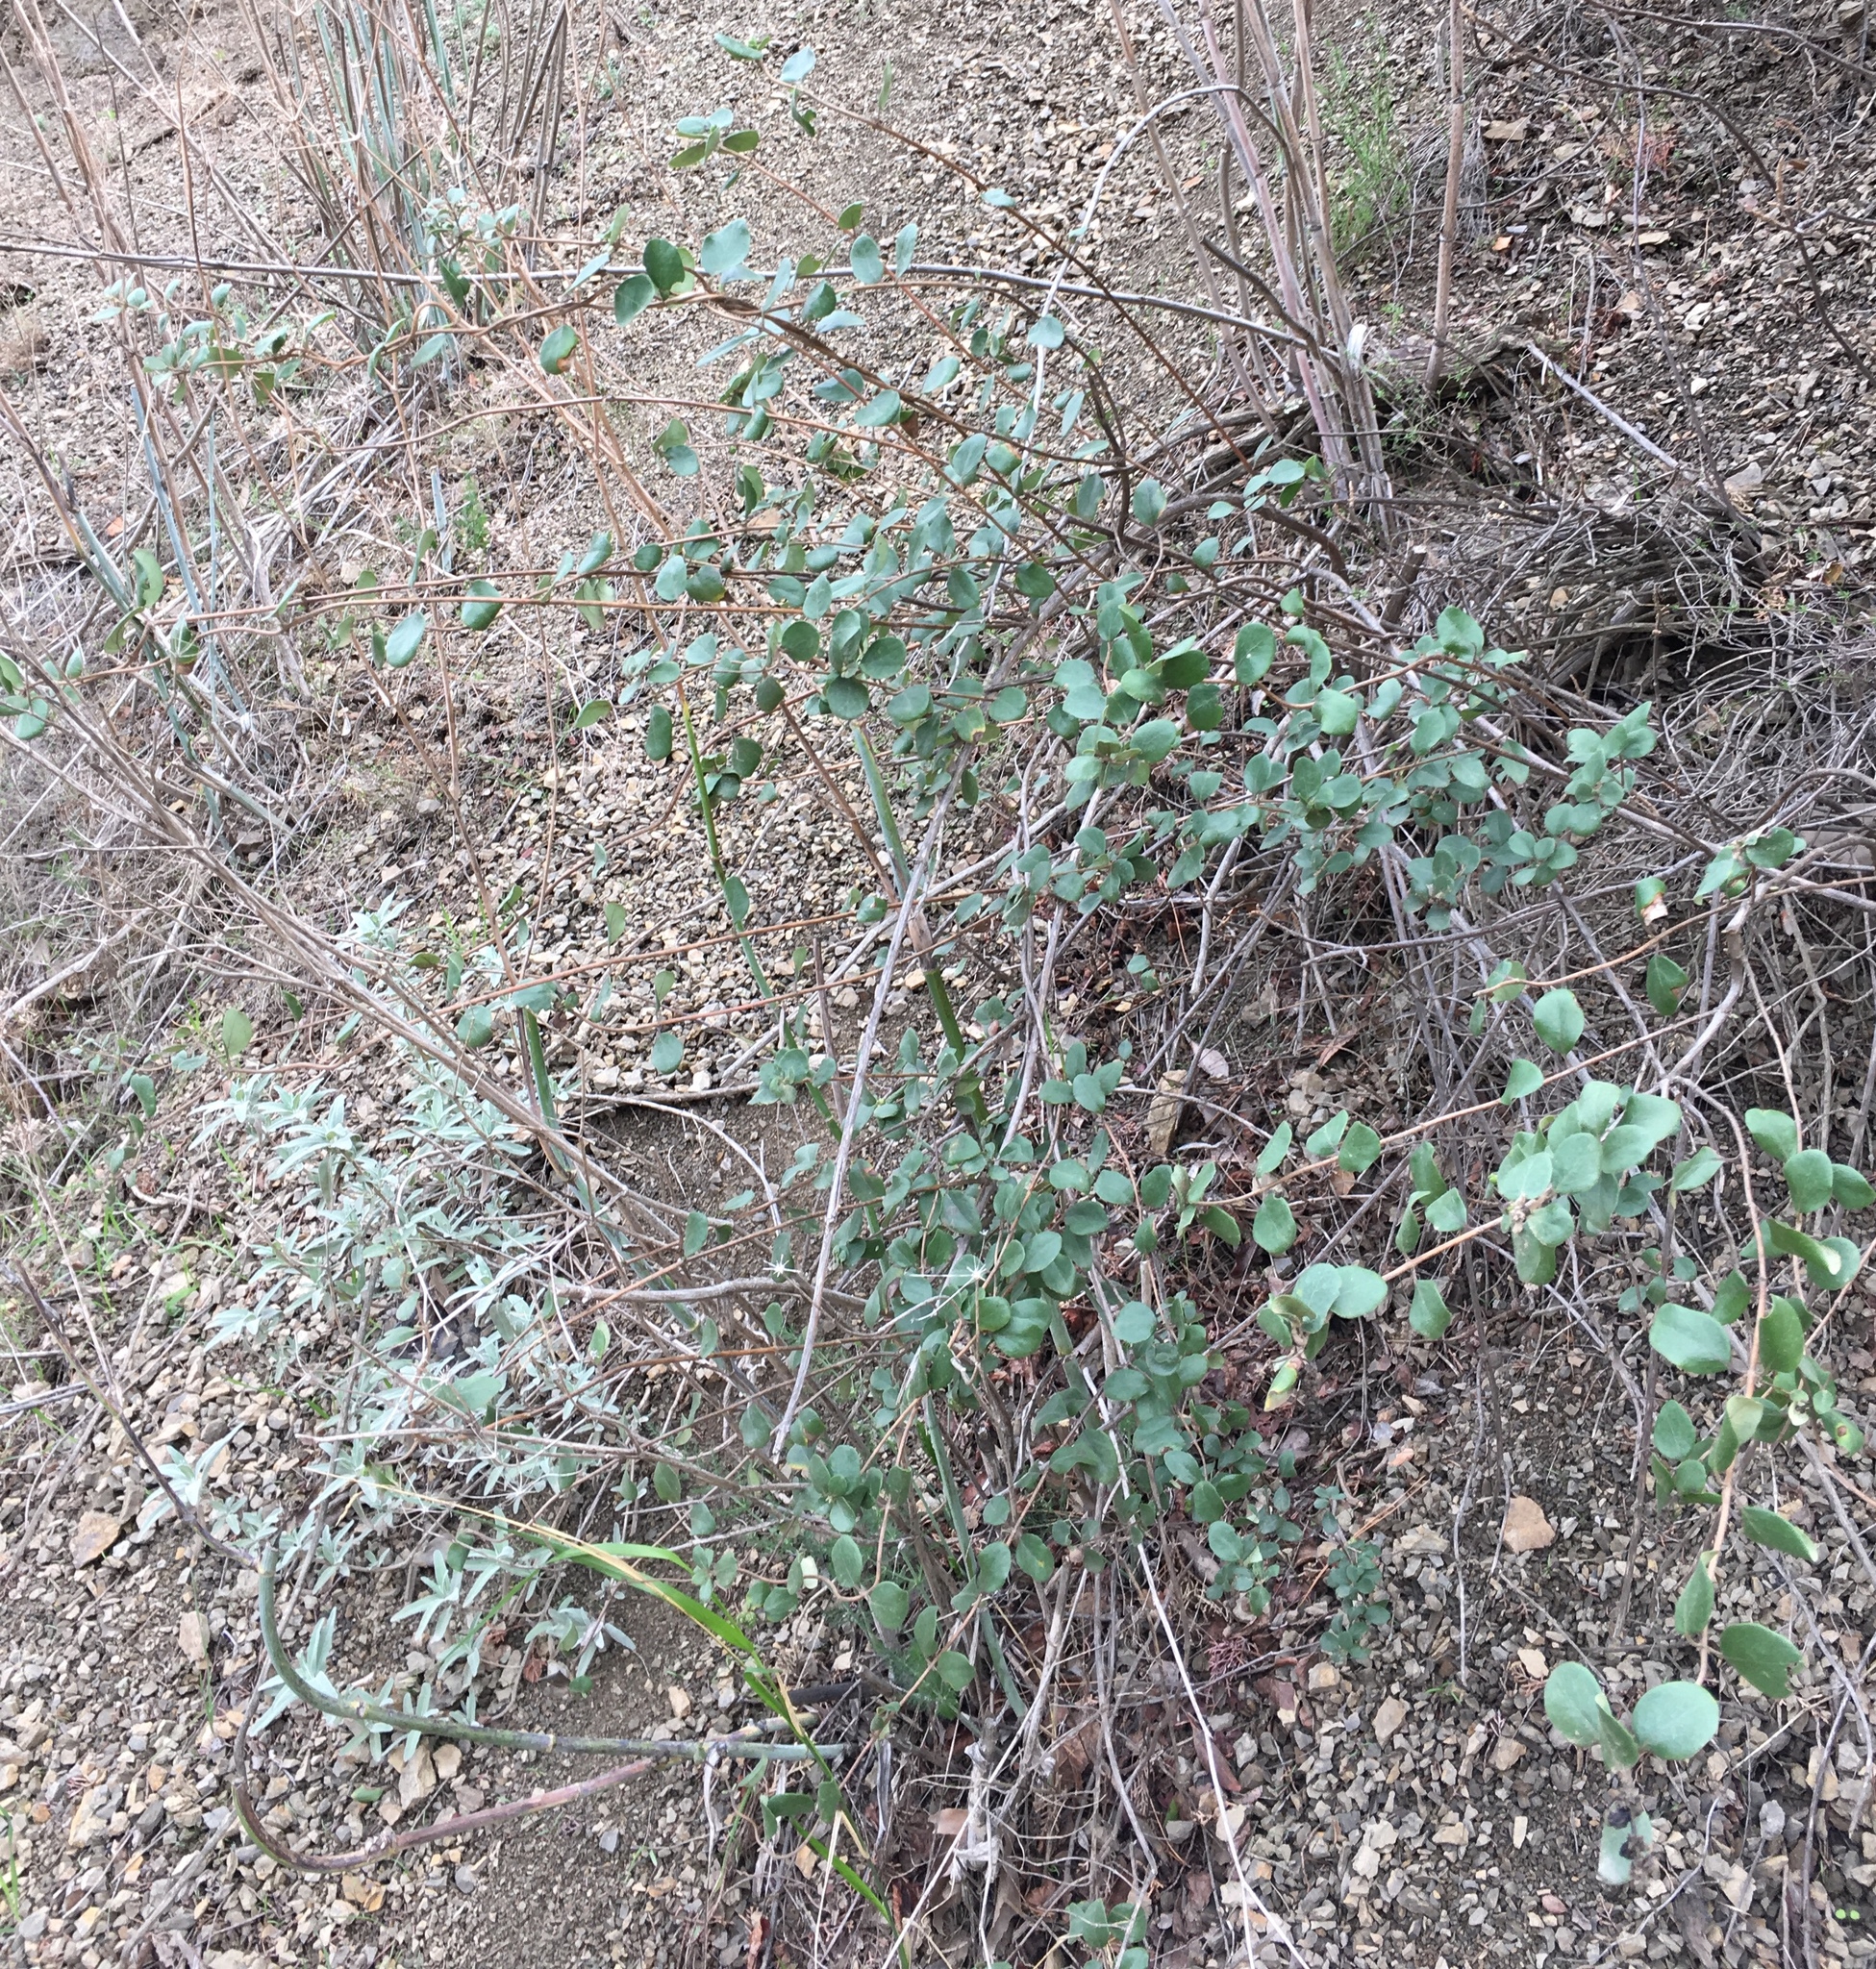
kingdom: Plantae
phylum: Tracheophyta
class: Magnoliopsida
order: Dipsacales
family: Caprifoliaceae
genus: Lonicera
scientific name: Lonicera subspicata
